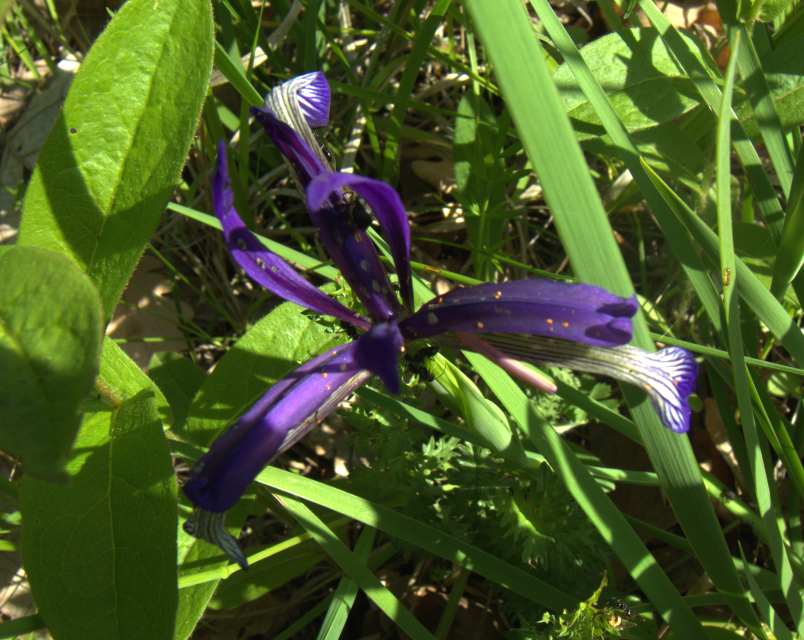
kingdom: Plantae
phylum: Tracheophyta
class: Liliopsida
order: Asparagales
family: Iridaceae
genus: Iris
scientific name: Iris sintenisii
